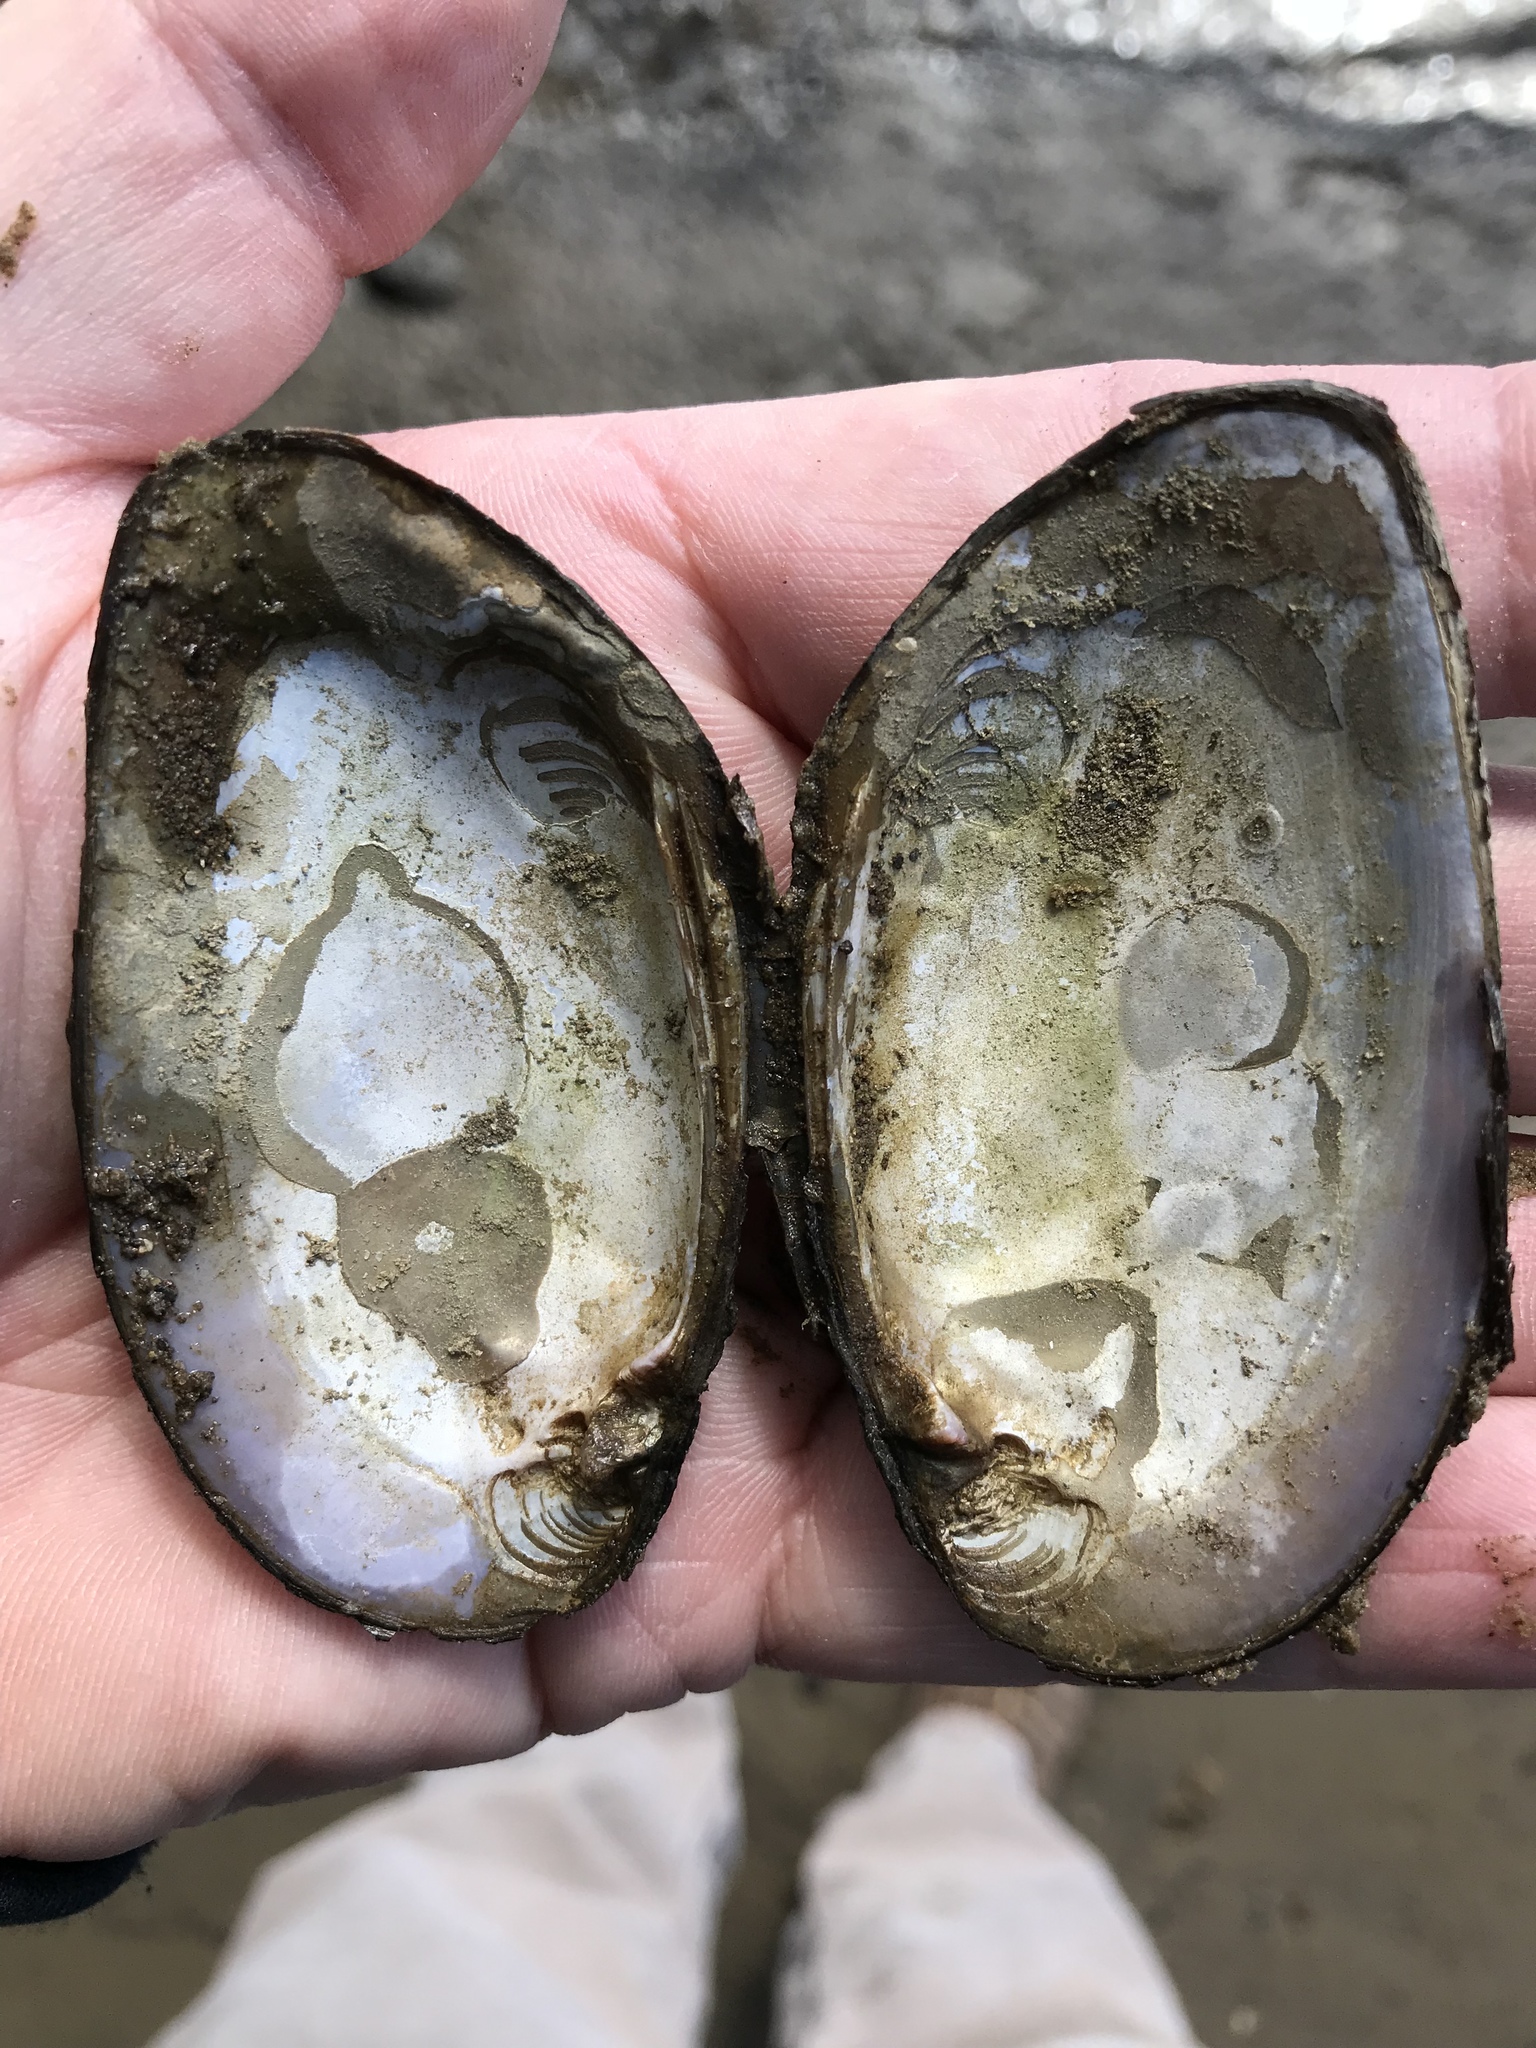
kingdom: Animalia
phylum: Mollusca
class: Bivalvia
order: Unionida
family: Unionidae
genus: Elliptio
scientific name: Elliptio complanata
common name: Eastern elliptio
